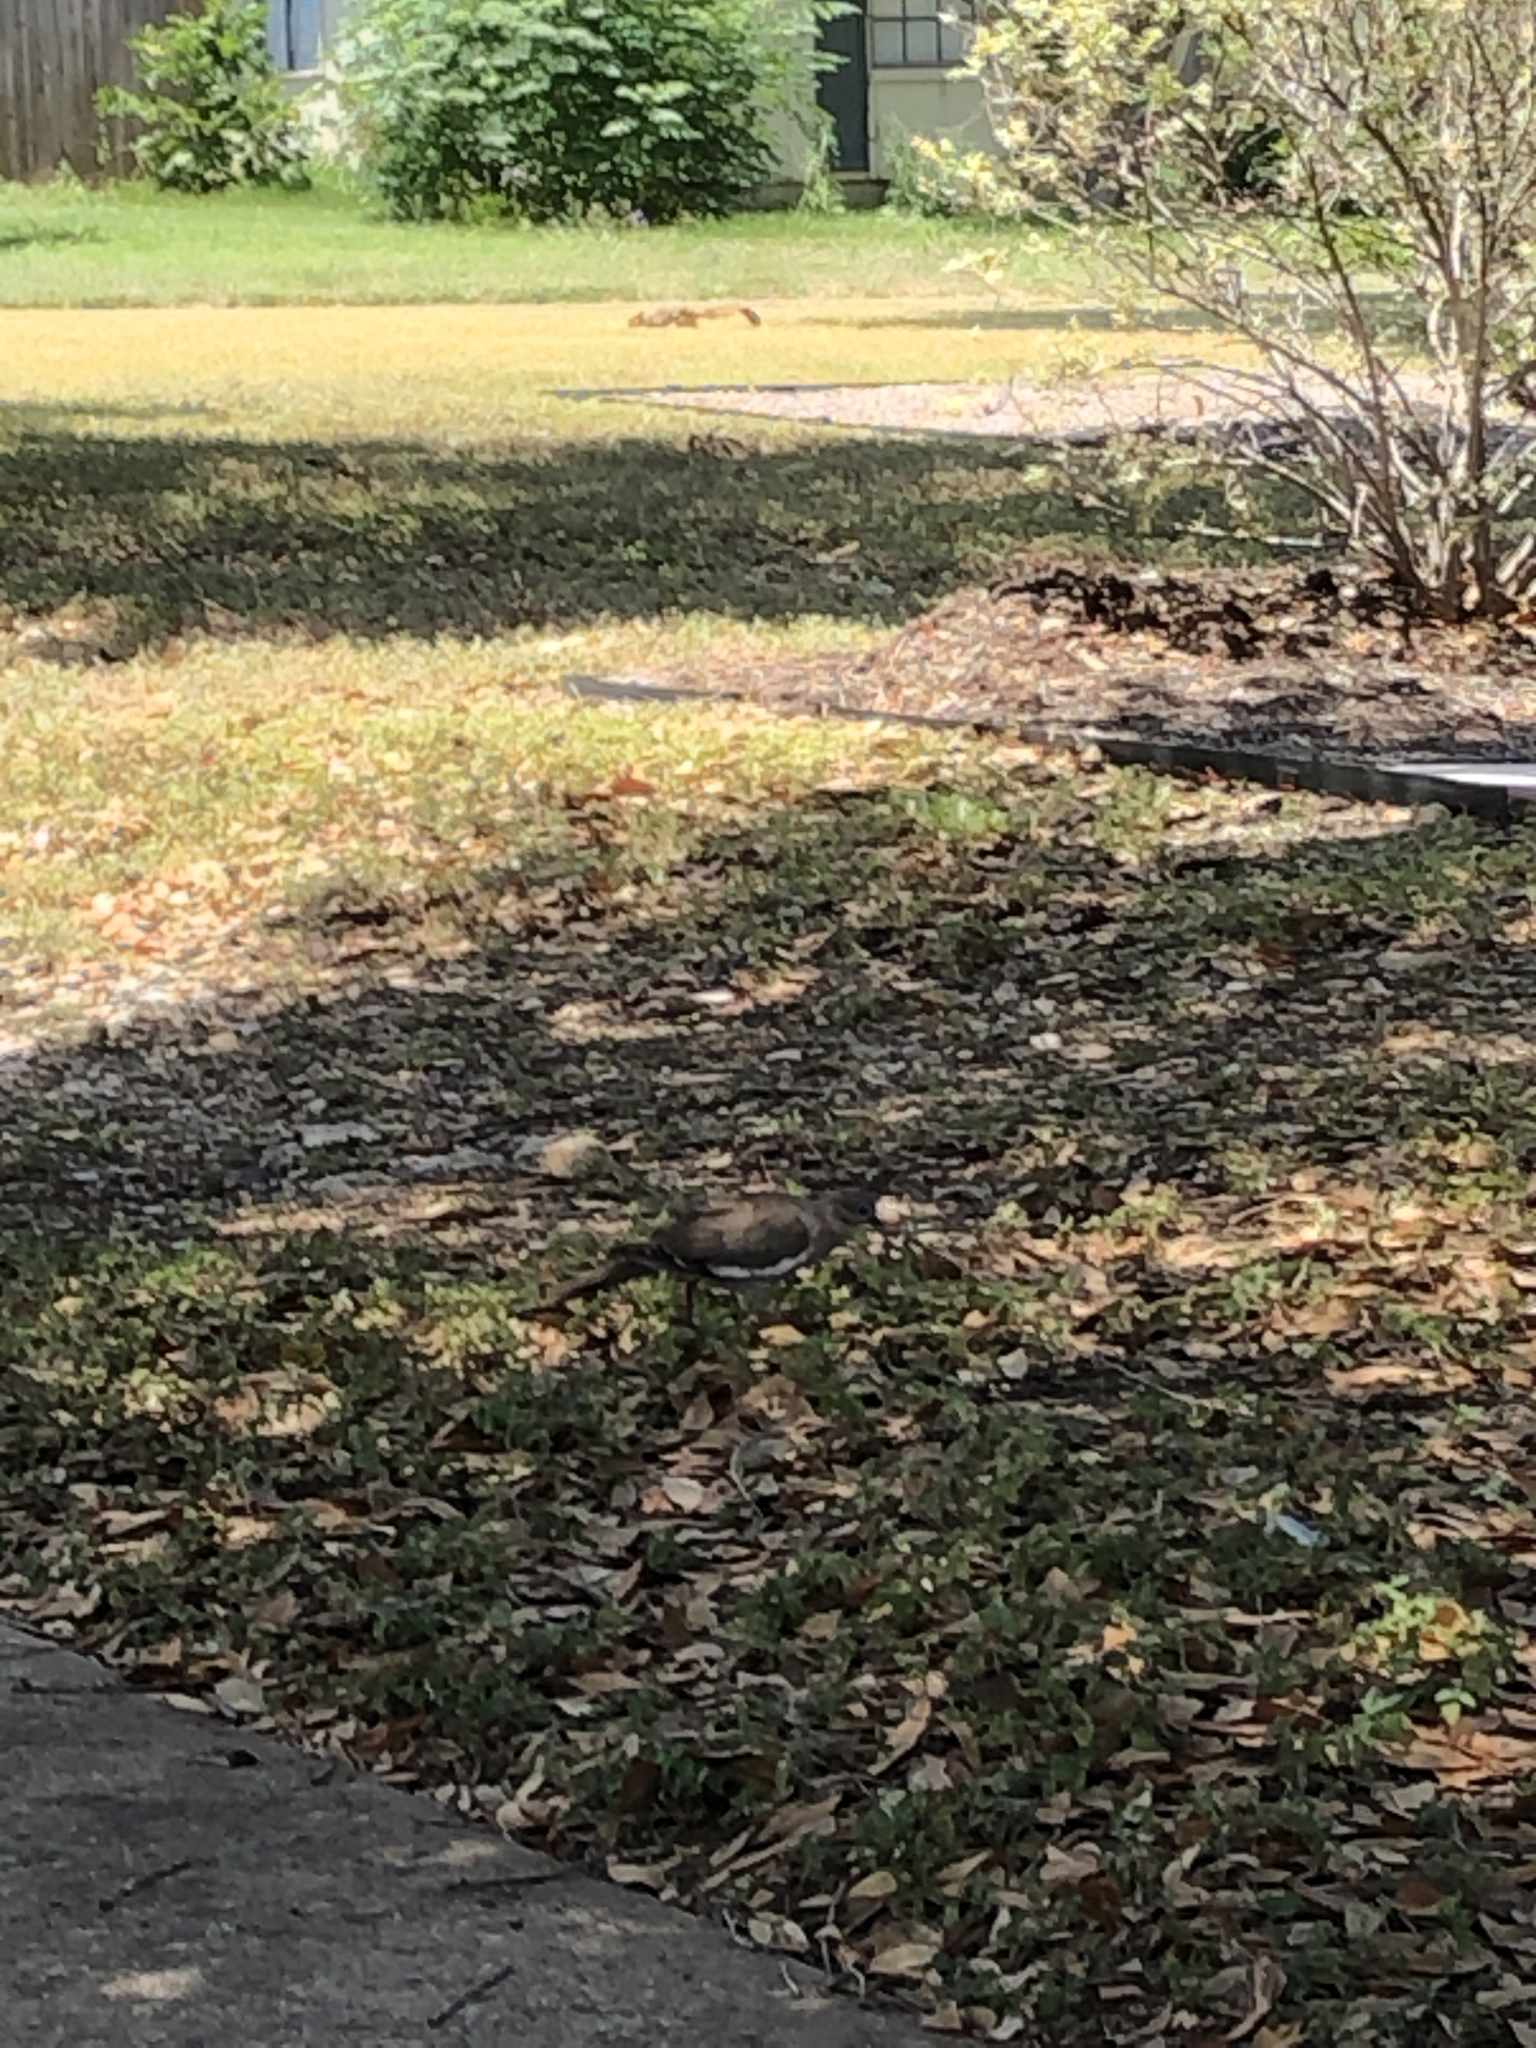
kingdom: Animalia
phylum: Chordata
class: Aves
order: Columbiformes
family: Columbidae
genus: Zenaida
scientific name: Zenaida asiatica
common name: White-winged dove
